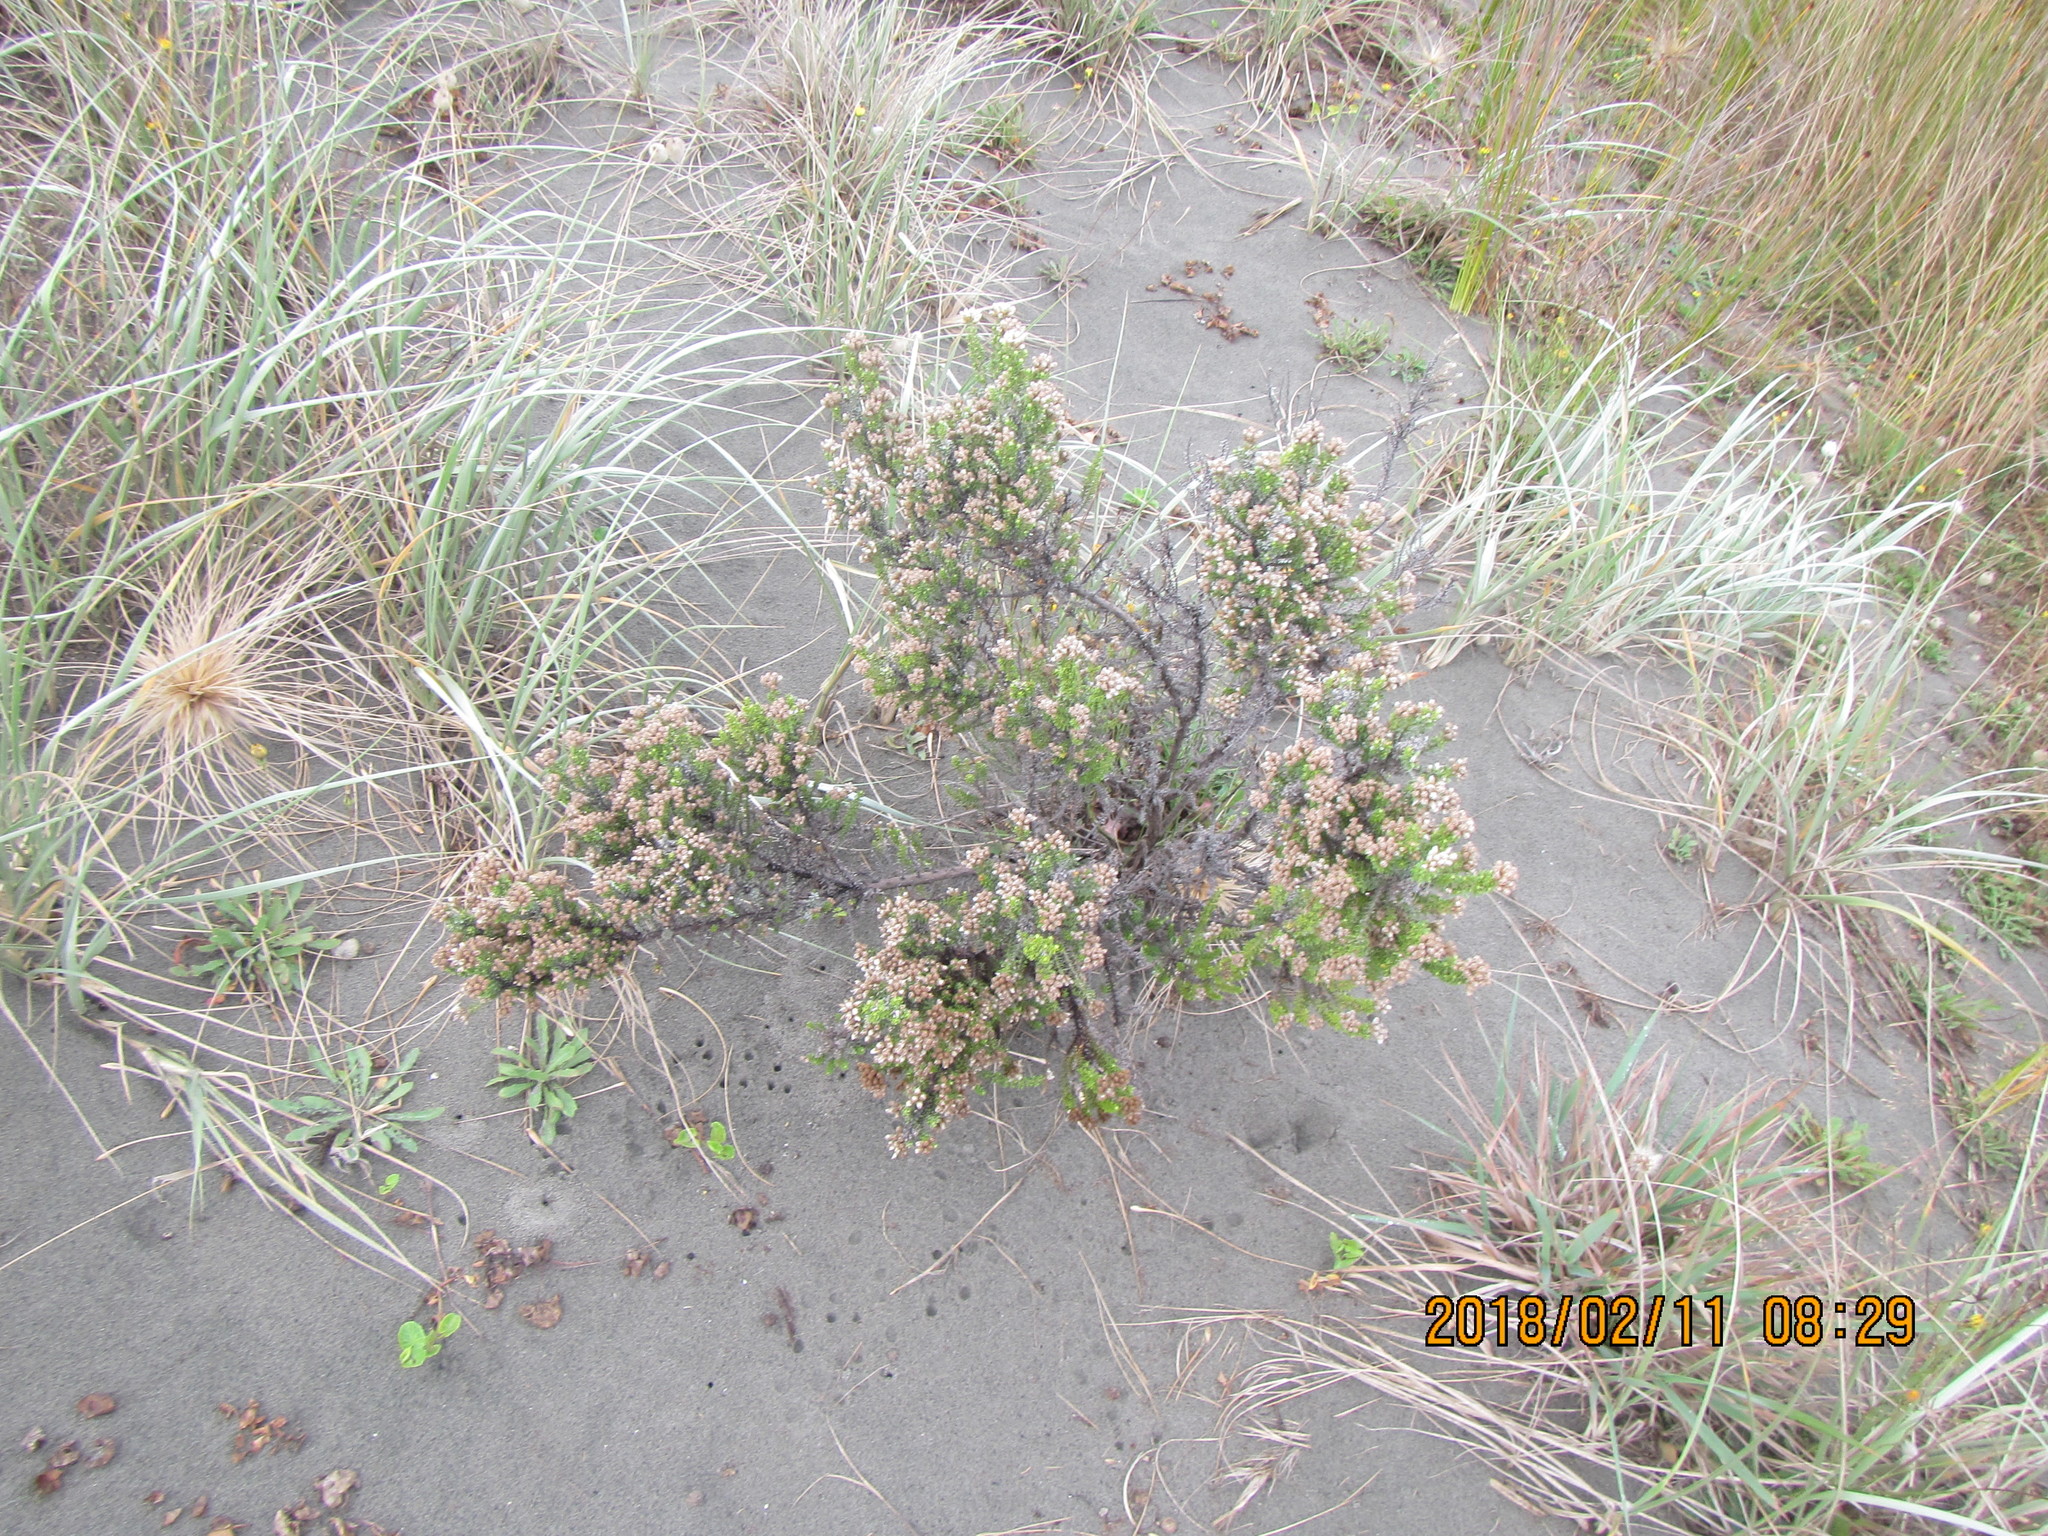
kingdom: Plantae
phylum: Tracheophyta
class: Magnoliopsida
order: Asterales
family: Asteraceae
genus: Ozothamnus
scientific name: Ozothamnus leptophyllus
